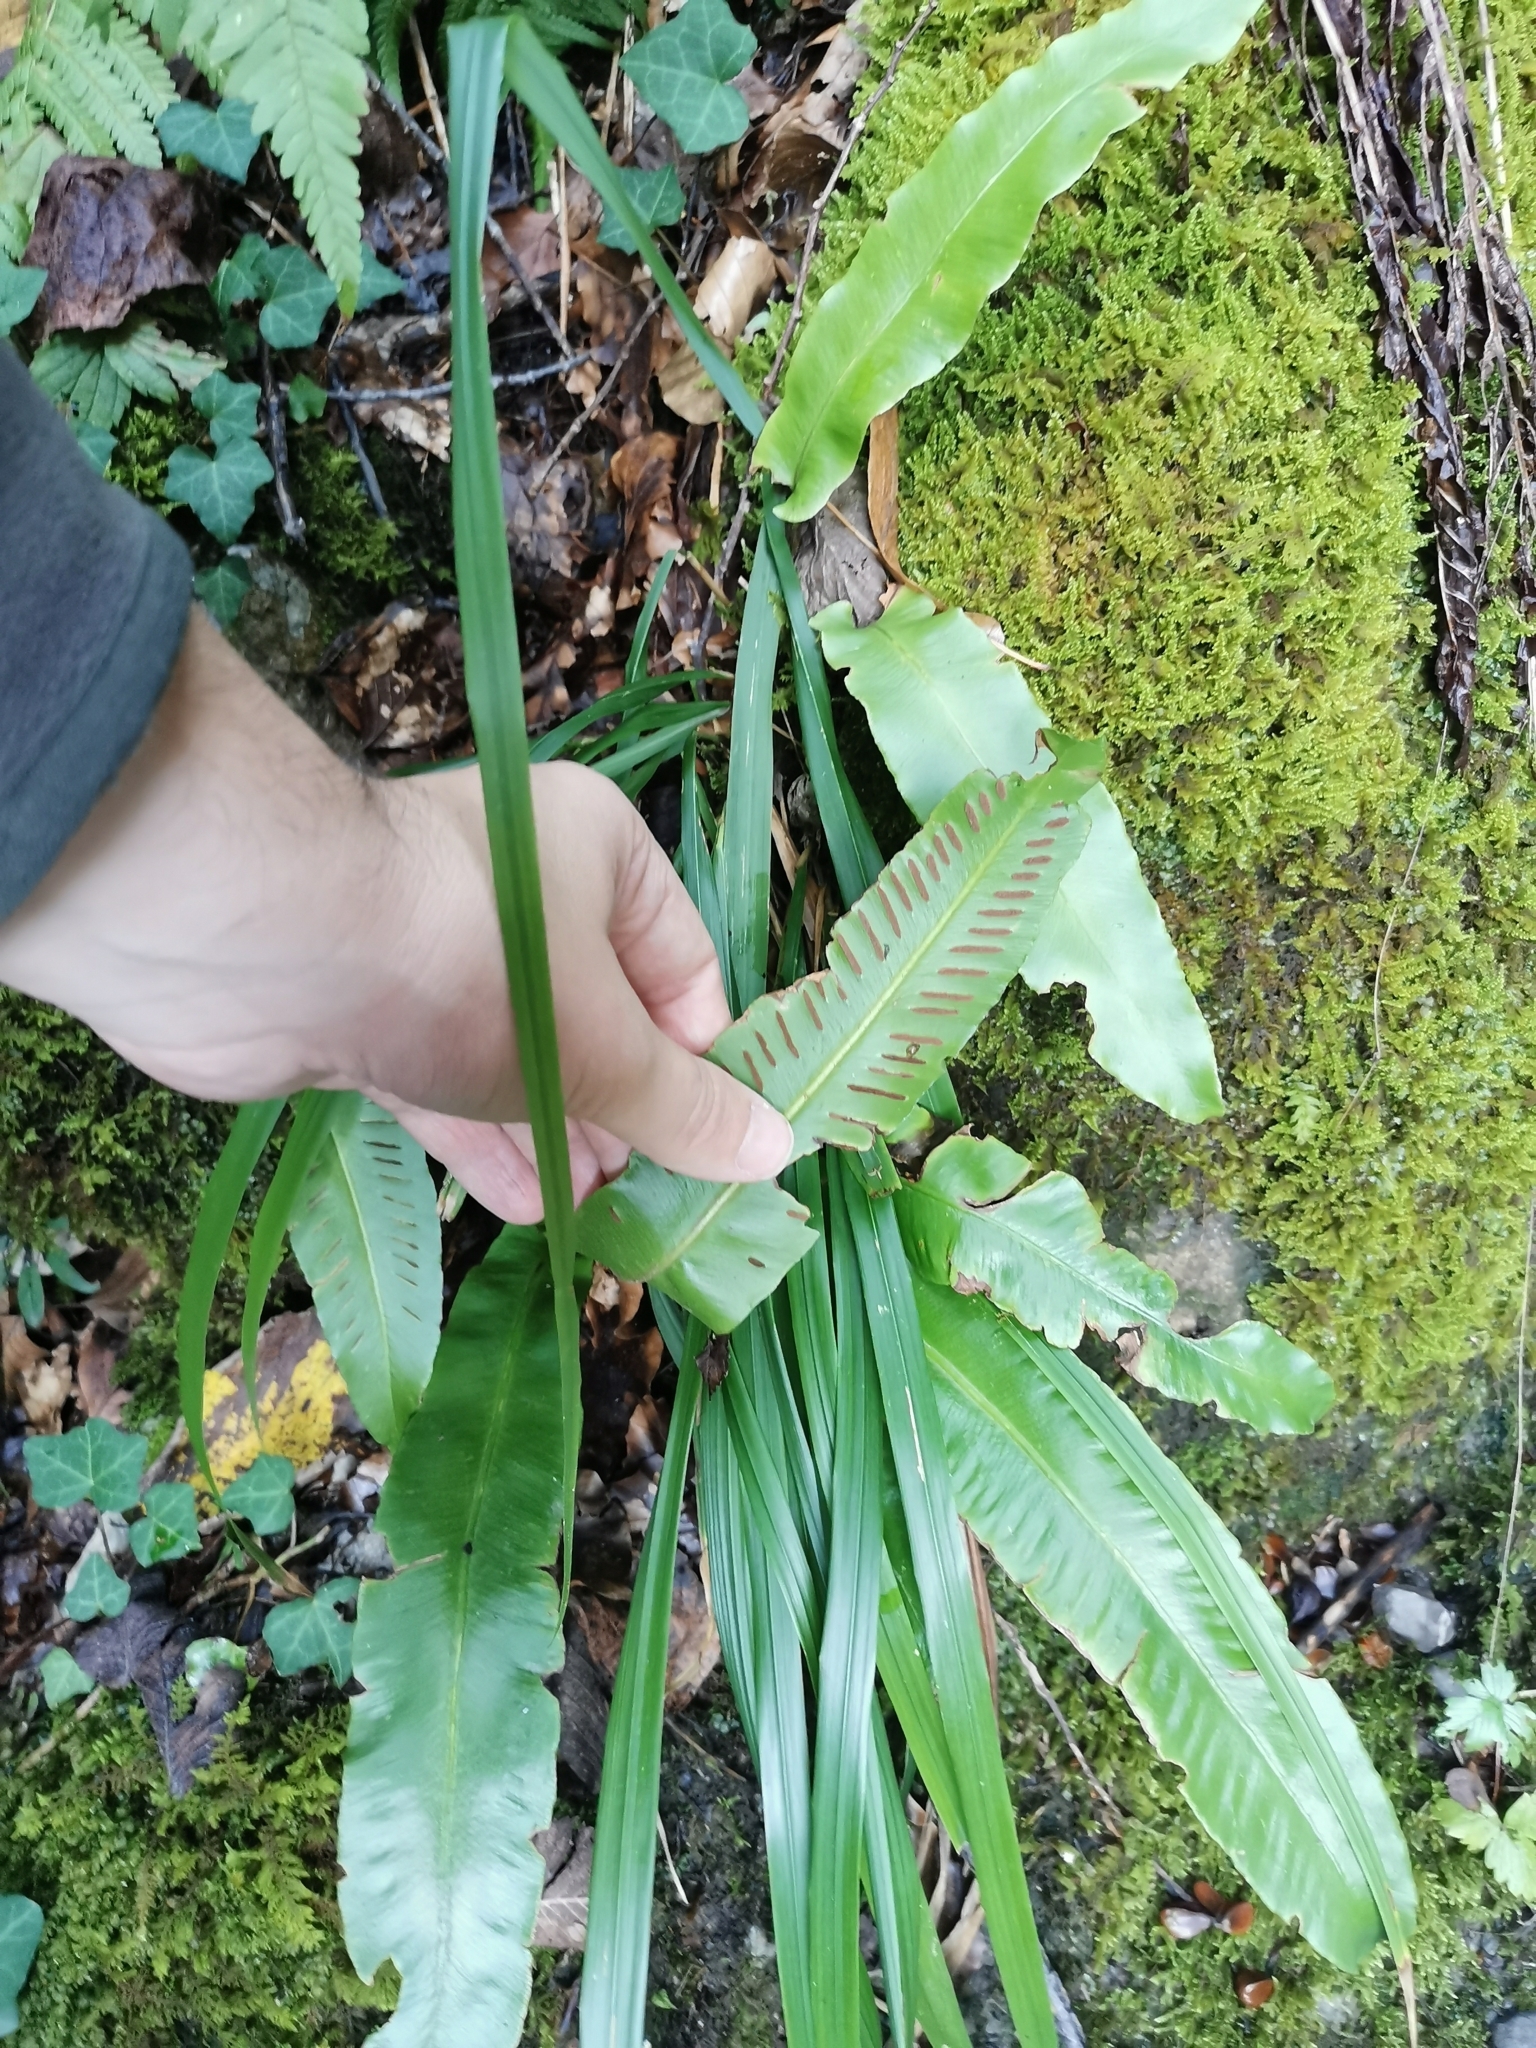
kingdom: Plantae
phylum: Tracheophyta
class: Polypodiopsida
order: Polypodiales
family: Aspleniaceae
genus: Asplenium
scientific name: Asplenium scolopendrium
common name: Hart's-tongue fern
